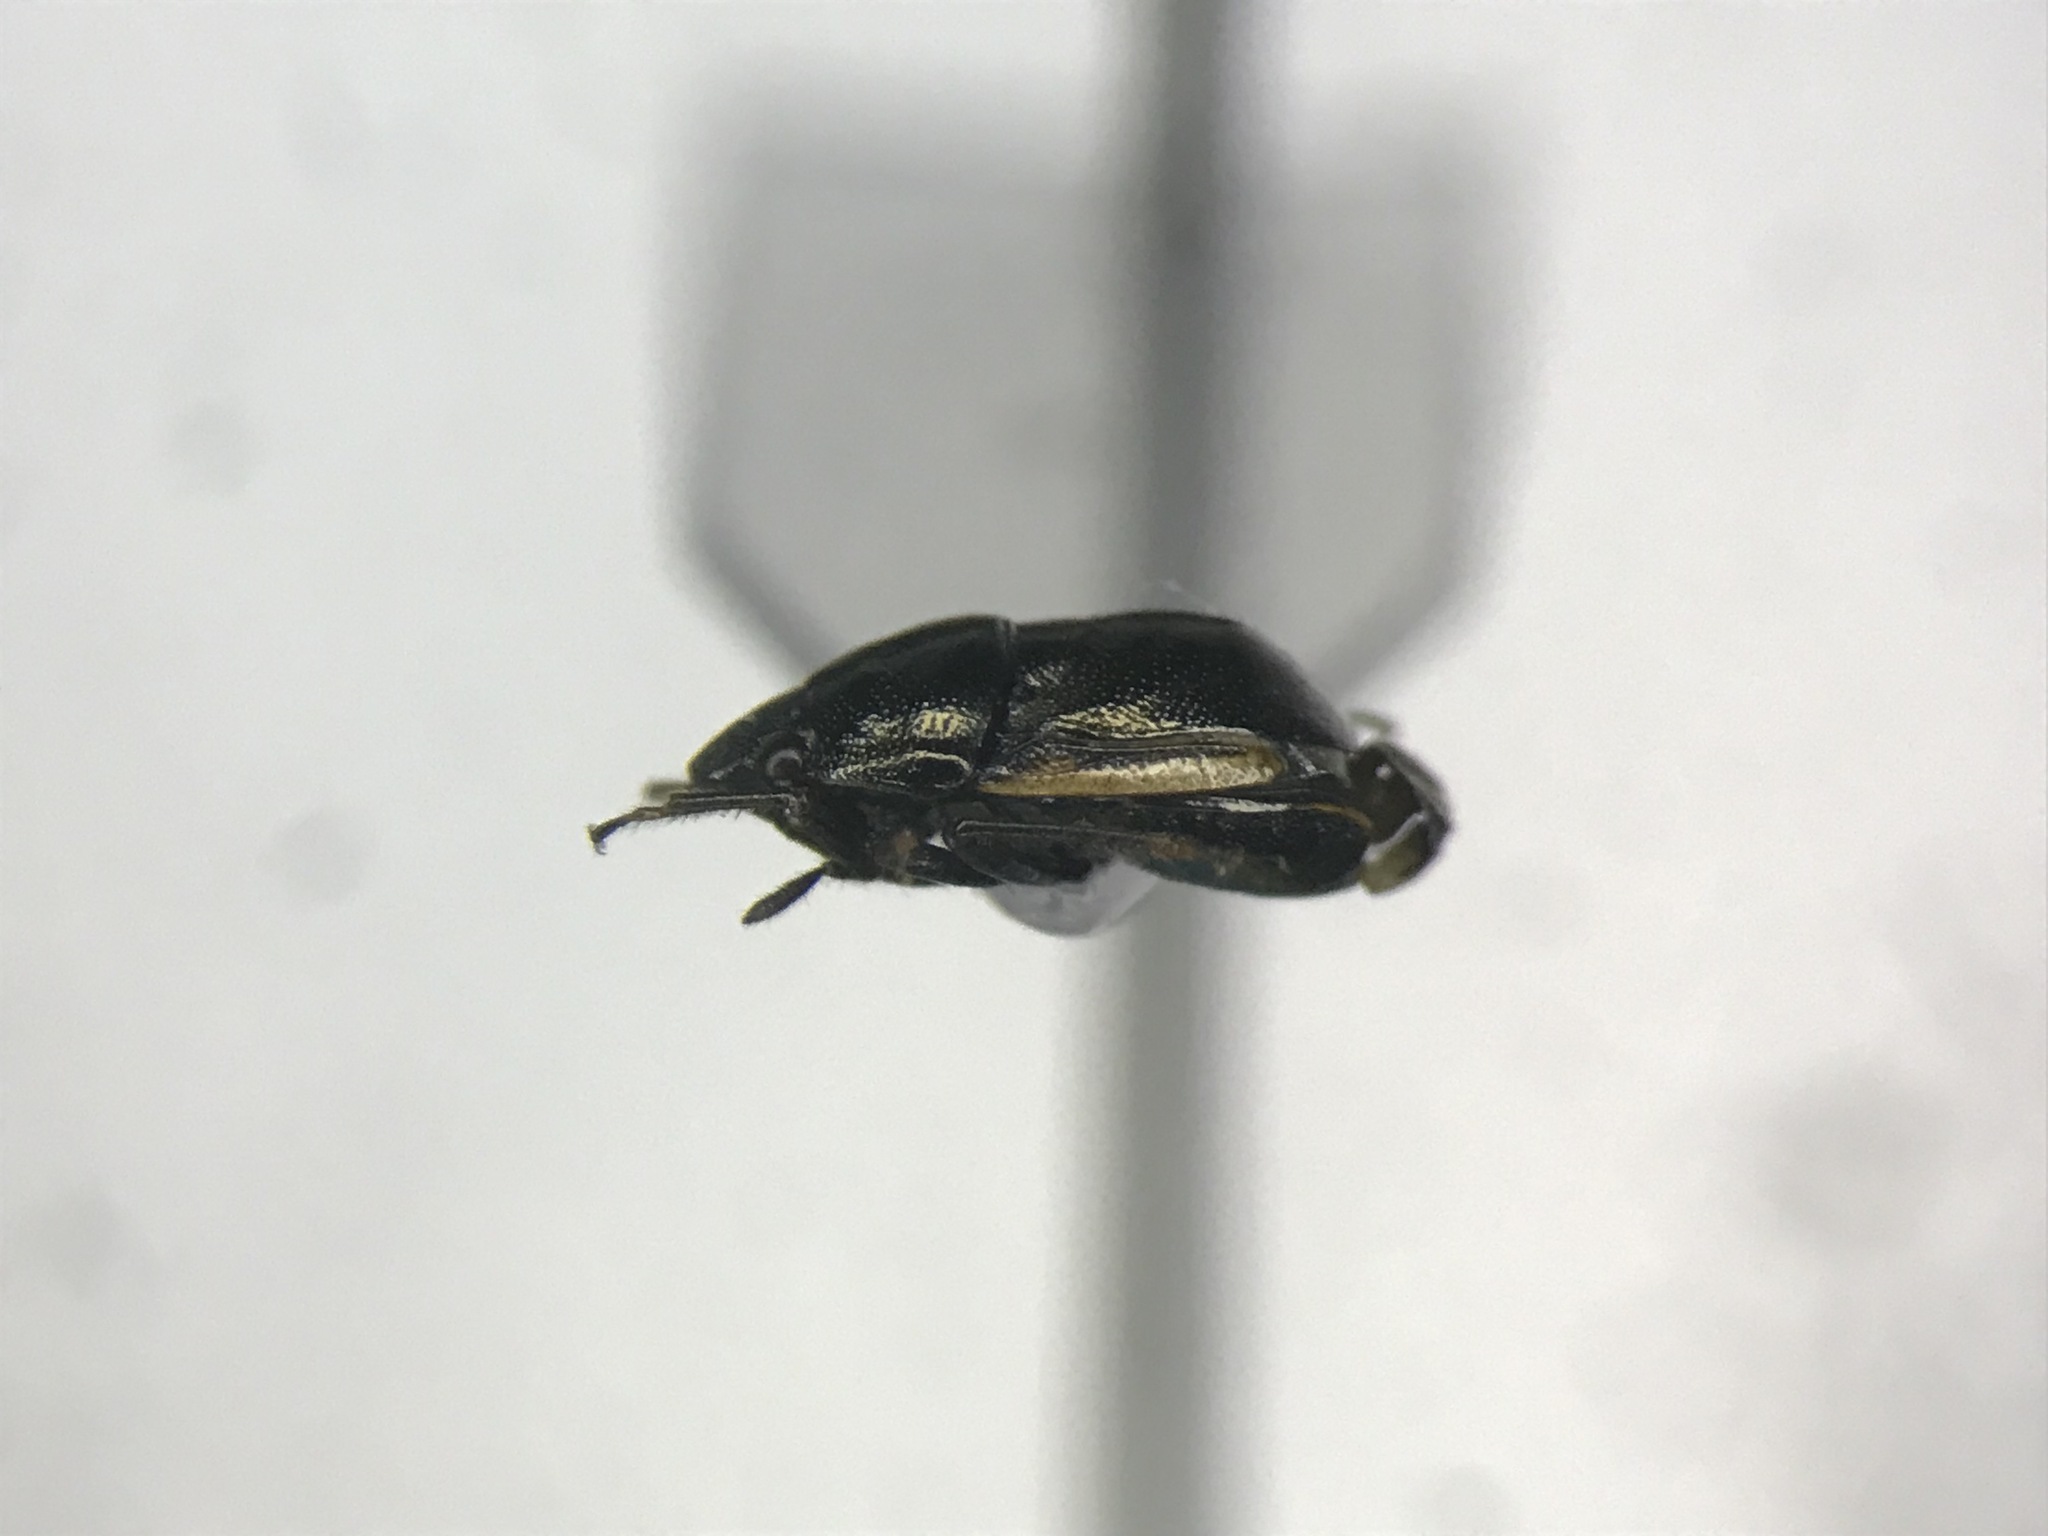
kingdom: Animalia
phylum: Arthropoda
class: Insecta
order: Hemiptera
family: Thyreocoridae
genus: Corimelaena
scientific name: Corimelaena pulicaria
